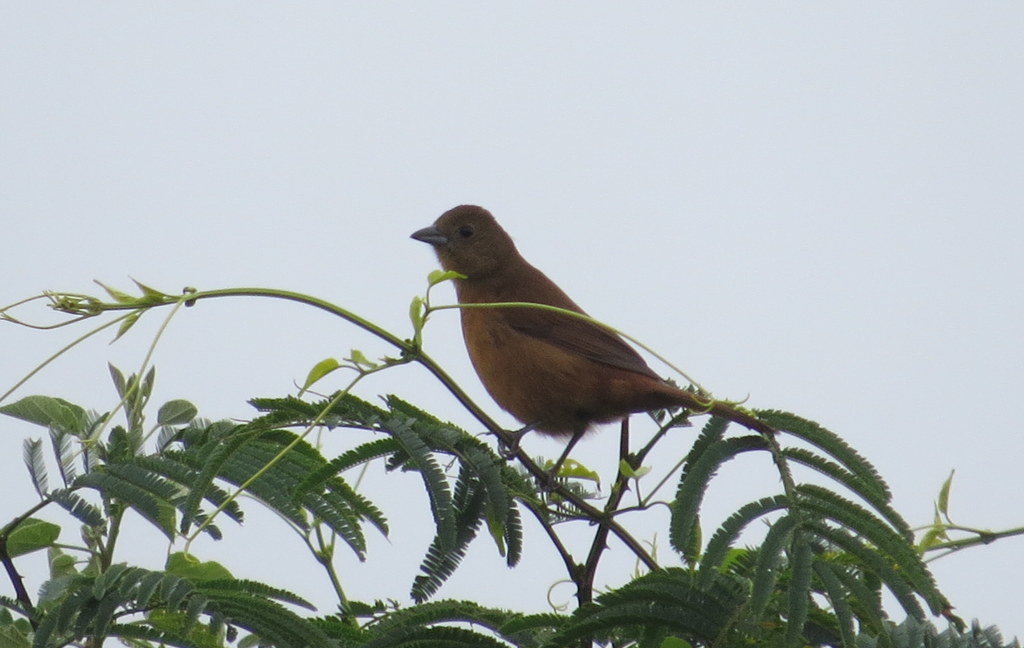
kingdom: Animalia
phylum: Chordata
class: Aves
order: Passeriformes
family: Thraupidae
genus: Tachyphonus
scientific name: Tachyphonus coronatus
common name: Ruby-crowned tanager
